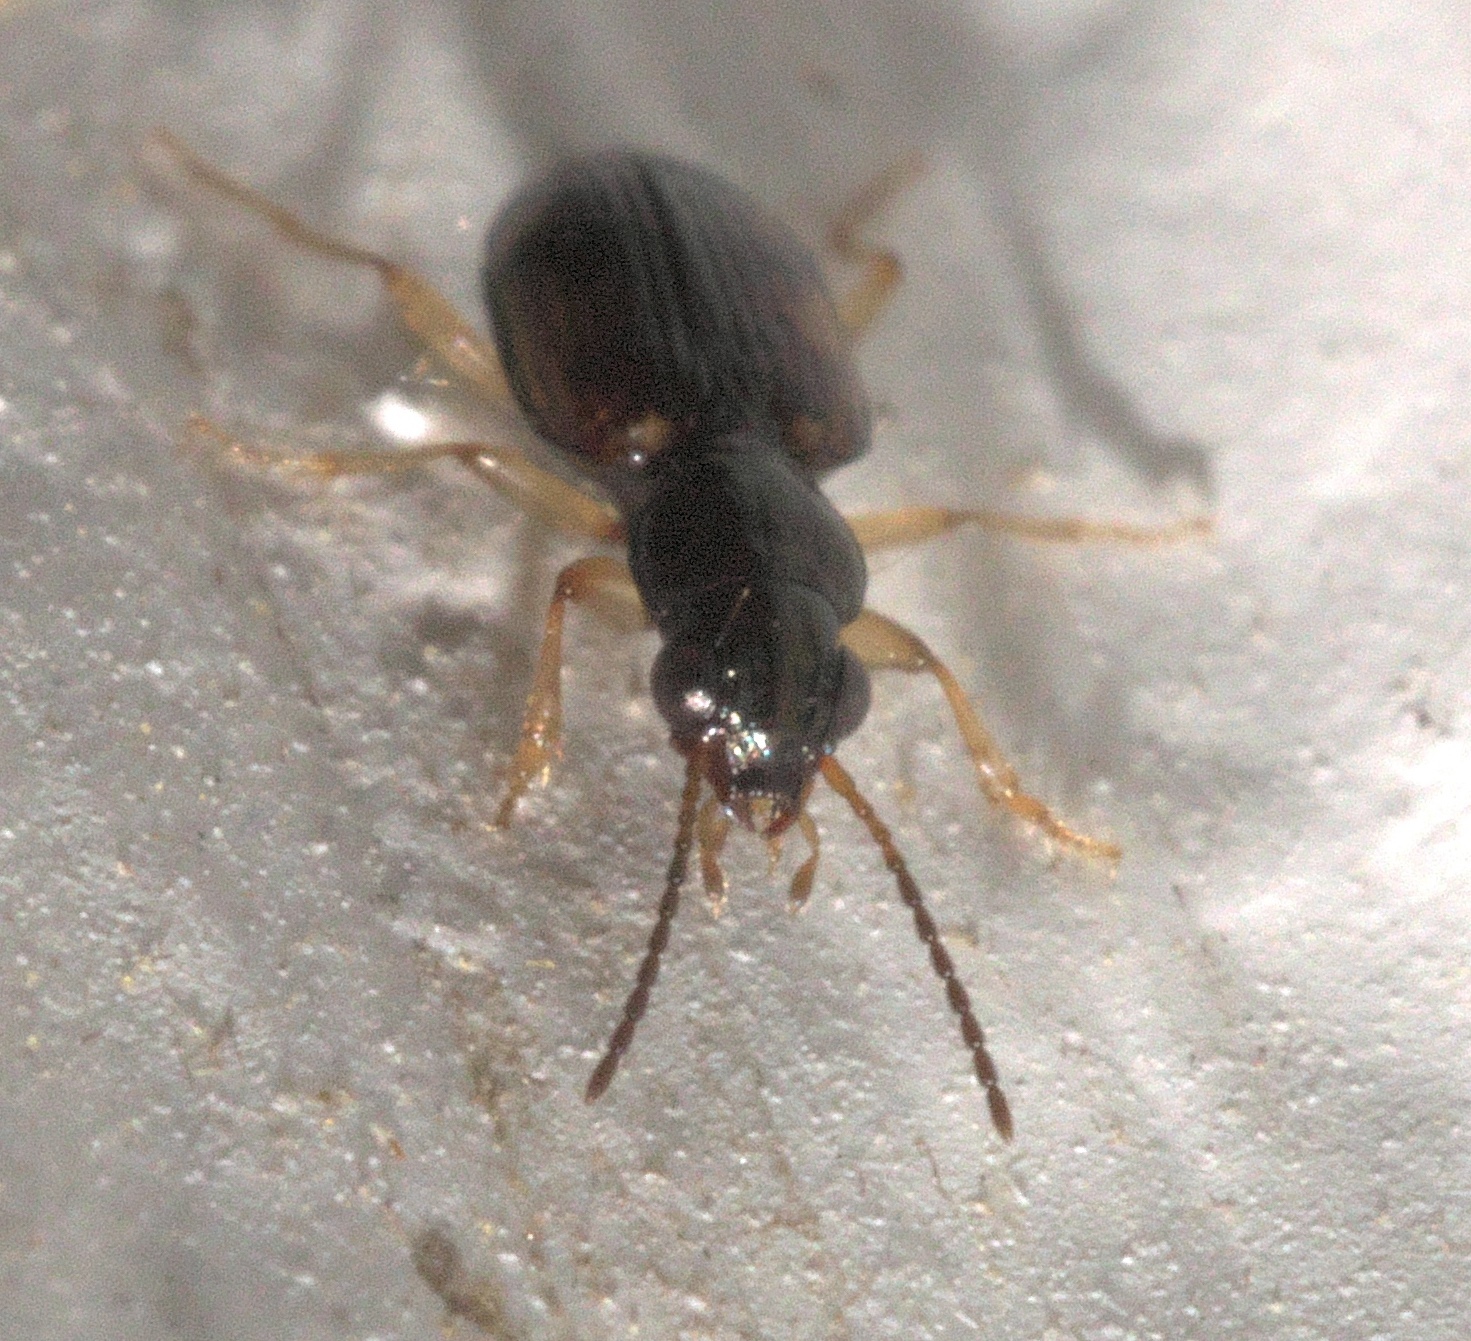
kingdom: Animalia
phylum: Arthropoda
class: Insecta
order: Coleoptera
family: Carabidae
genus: Bembidion
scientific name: Bembidion affine
